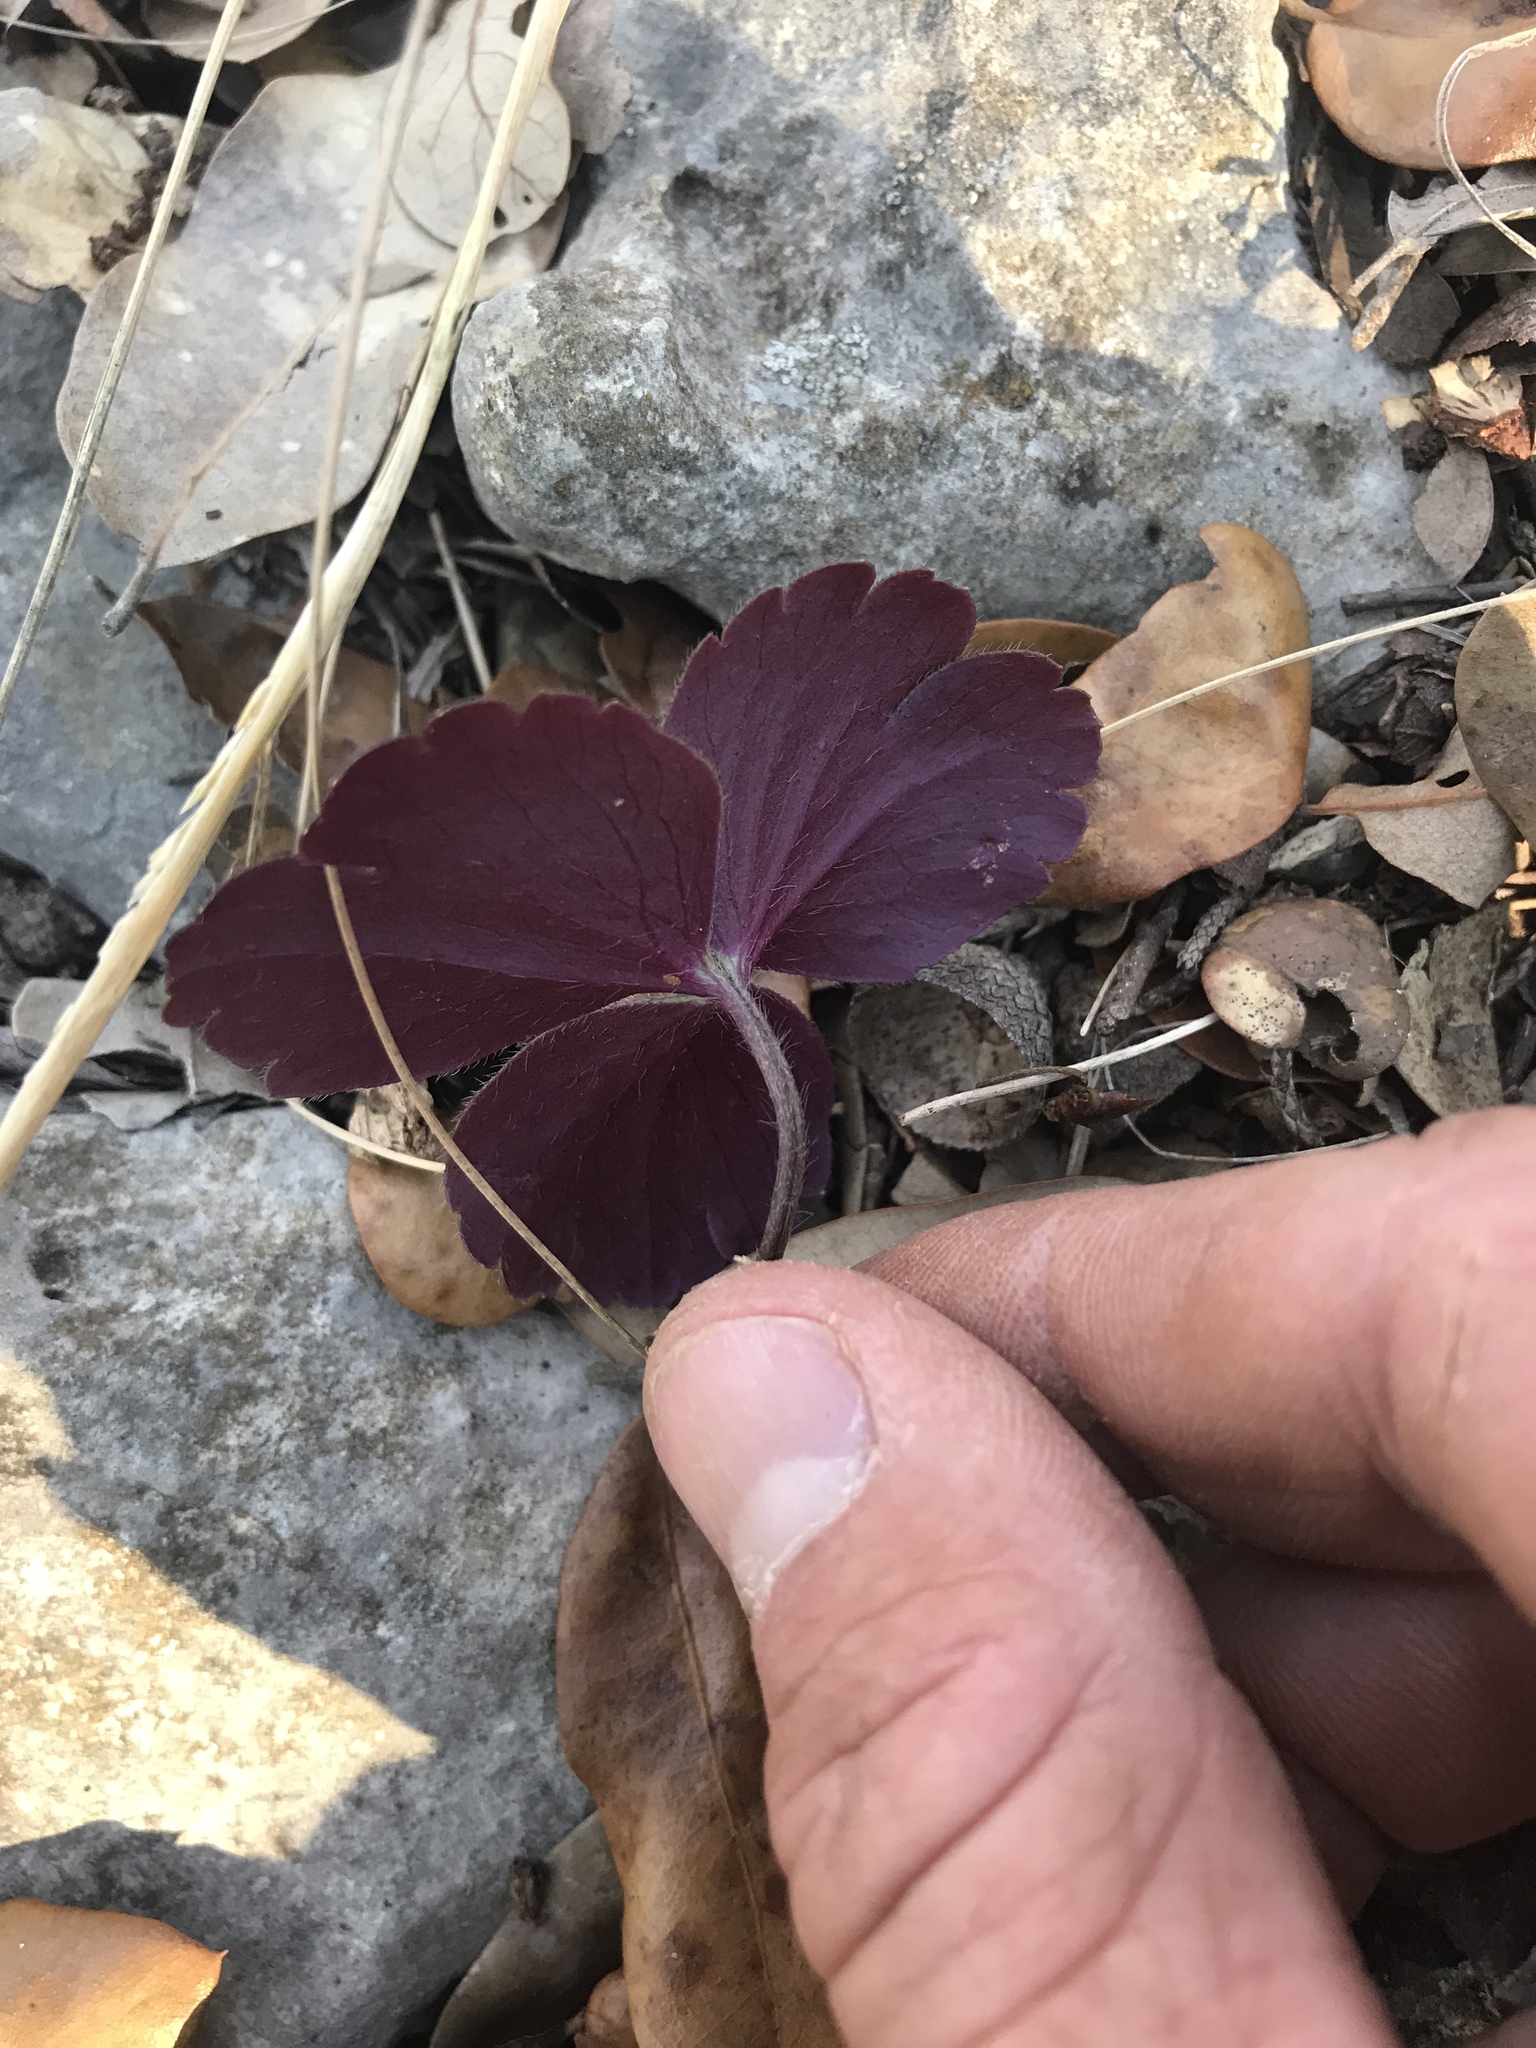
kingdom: Plantae
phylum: Tracheophyta
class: Magnoliopsida
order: Ranunculales
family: Ranunculaceae
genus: Anemone
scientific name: Anemone berlandieri
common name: Ten-petal anemone
